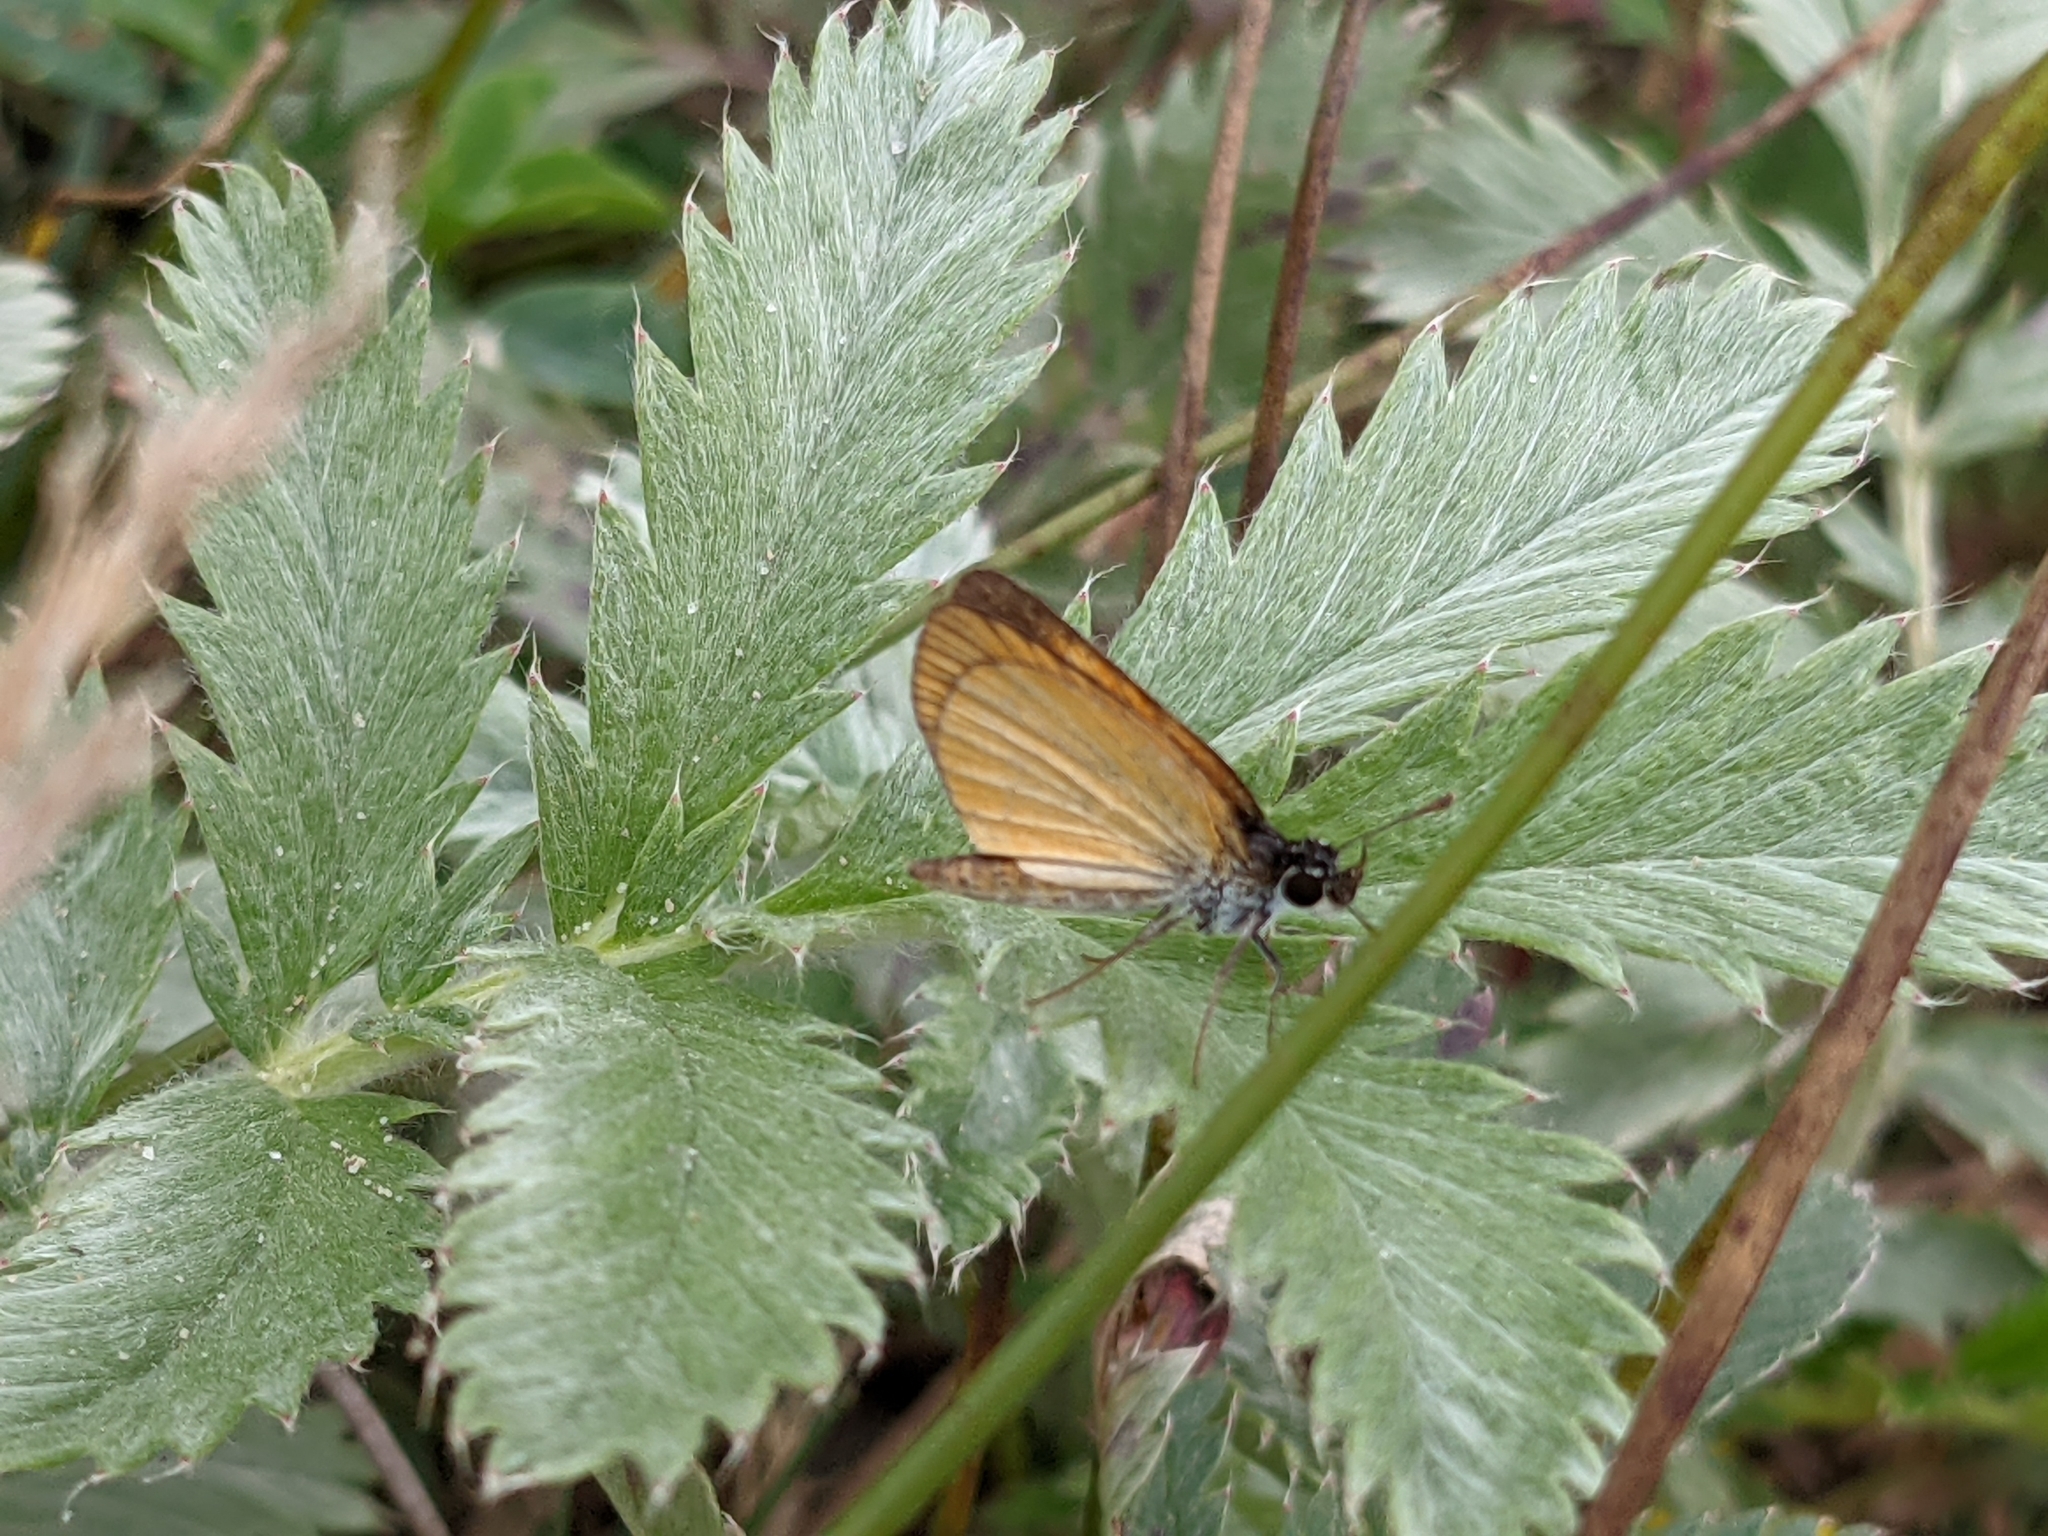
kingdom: Animalia
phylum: Arthropoda
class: Insecta
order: Lepidoptera
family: Hesperiidae
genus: Ancyloxypha
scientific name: Ancyloxypha numitor
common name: Least skipper
